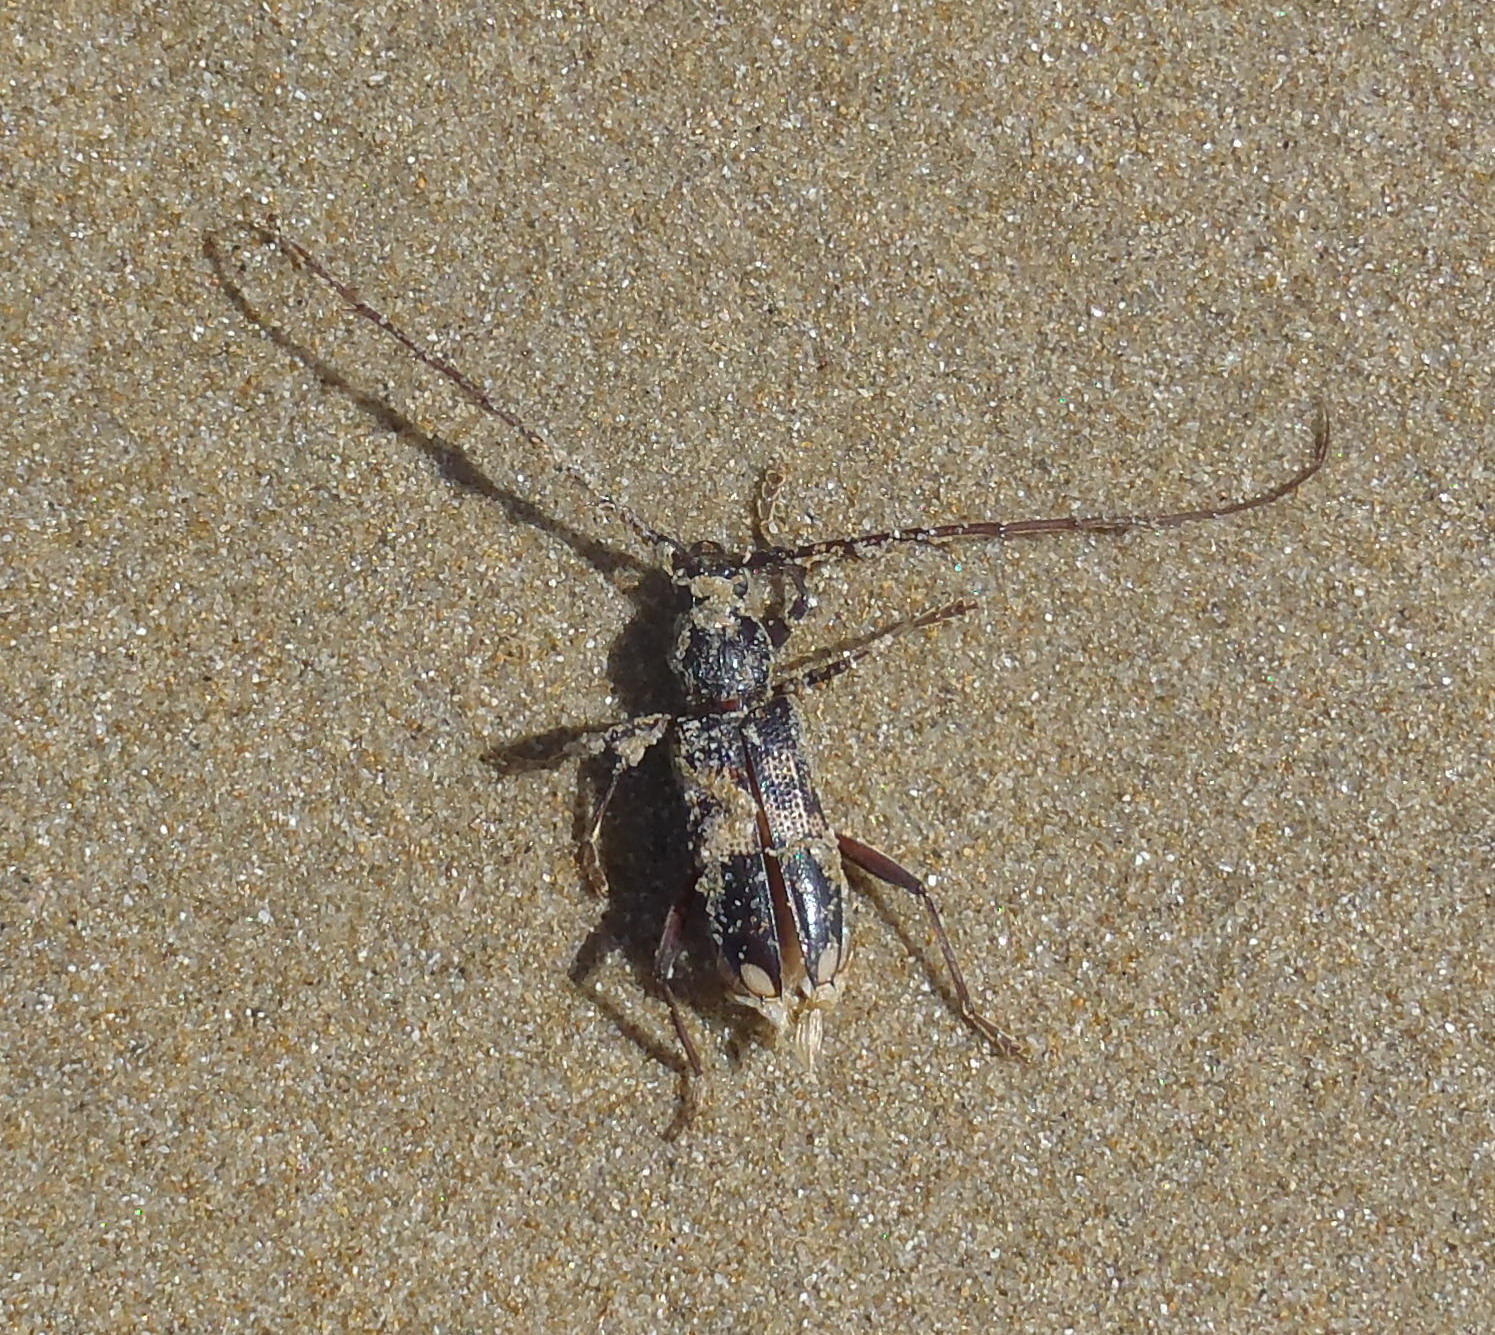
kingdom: Animalia
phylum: Arthropoda
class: Insecta
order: Coleoptera
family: Cerambycidae
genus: Phoracantha
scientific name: Phoracantha semipunctata
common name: Eucalyptus longhorn borer
